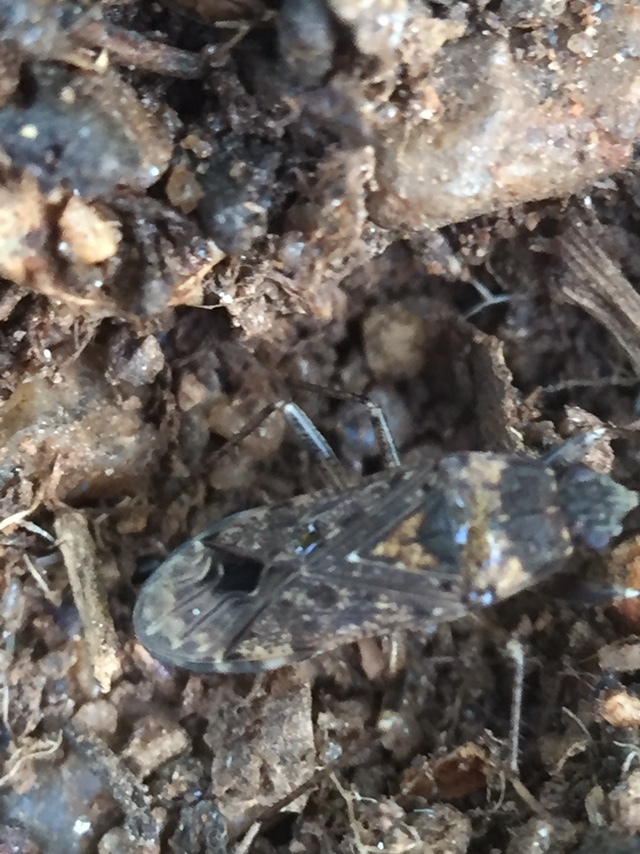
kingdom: Animalia
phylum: Arthropoda
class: Insecta
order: Hemiptera
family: Rhyparochromidae
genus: Elasmolomus
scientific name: Elasmolomus pallens
